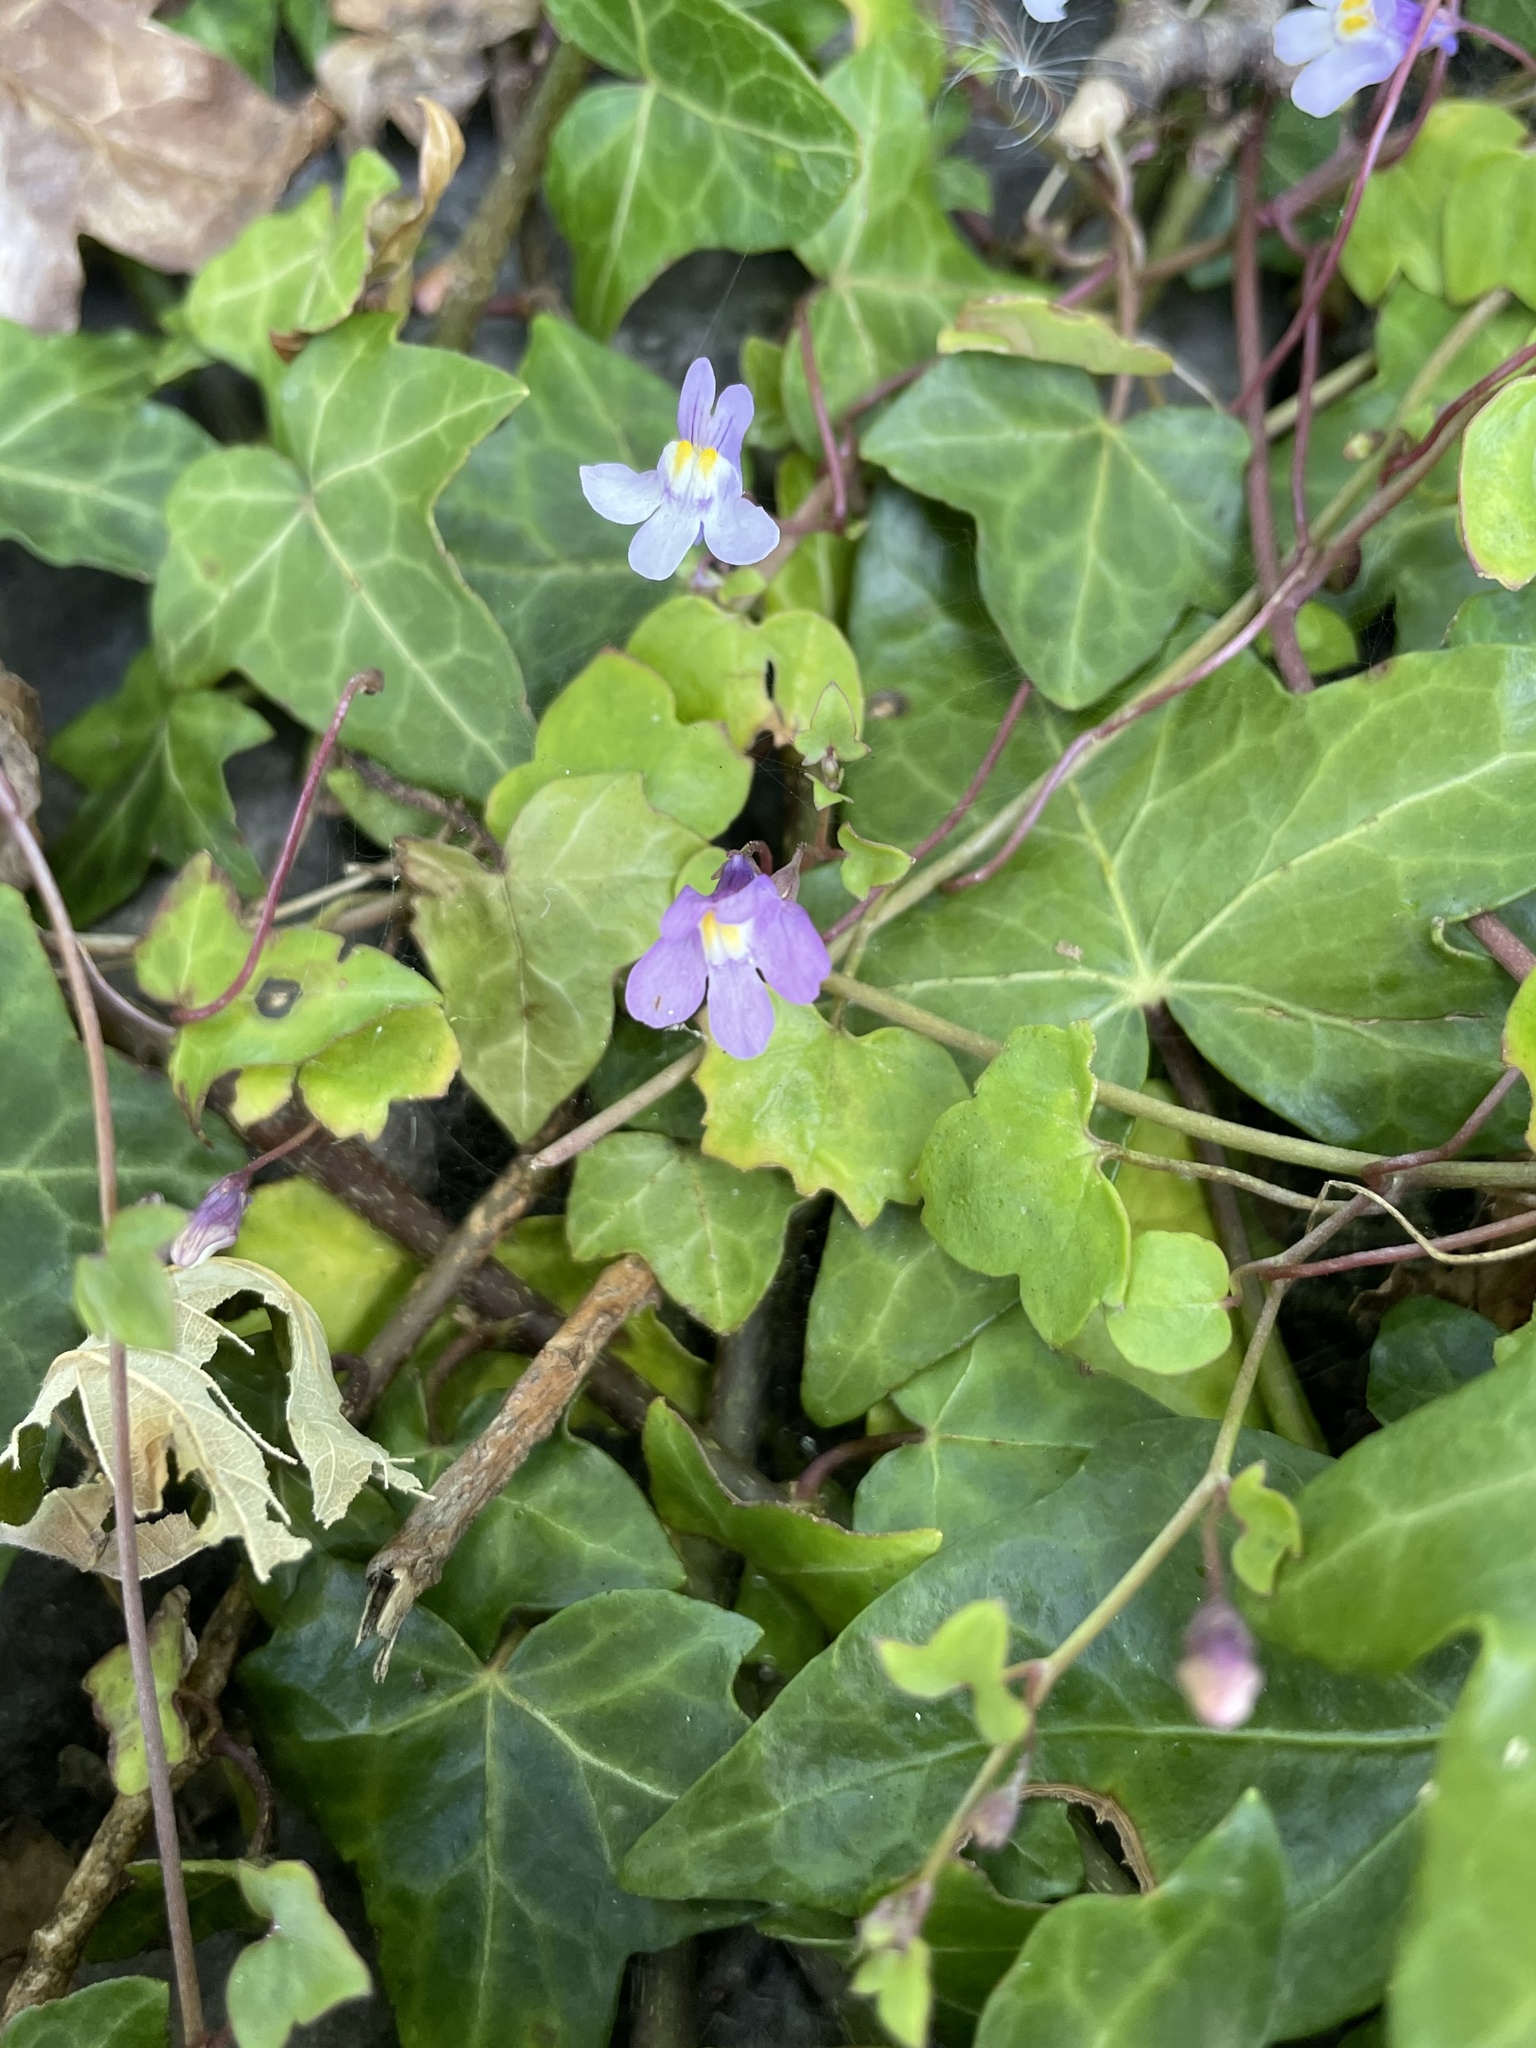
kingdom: Plantae
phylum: Tracheophyta
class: Magnoliopsida
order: Lamiales
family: Plantaginaceae
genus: Cymbalaria
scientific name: Cymbalaria muralis
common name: Ivy-leaved toadflax
